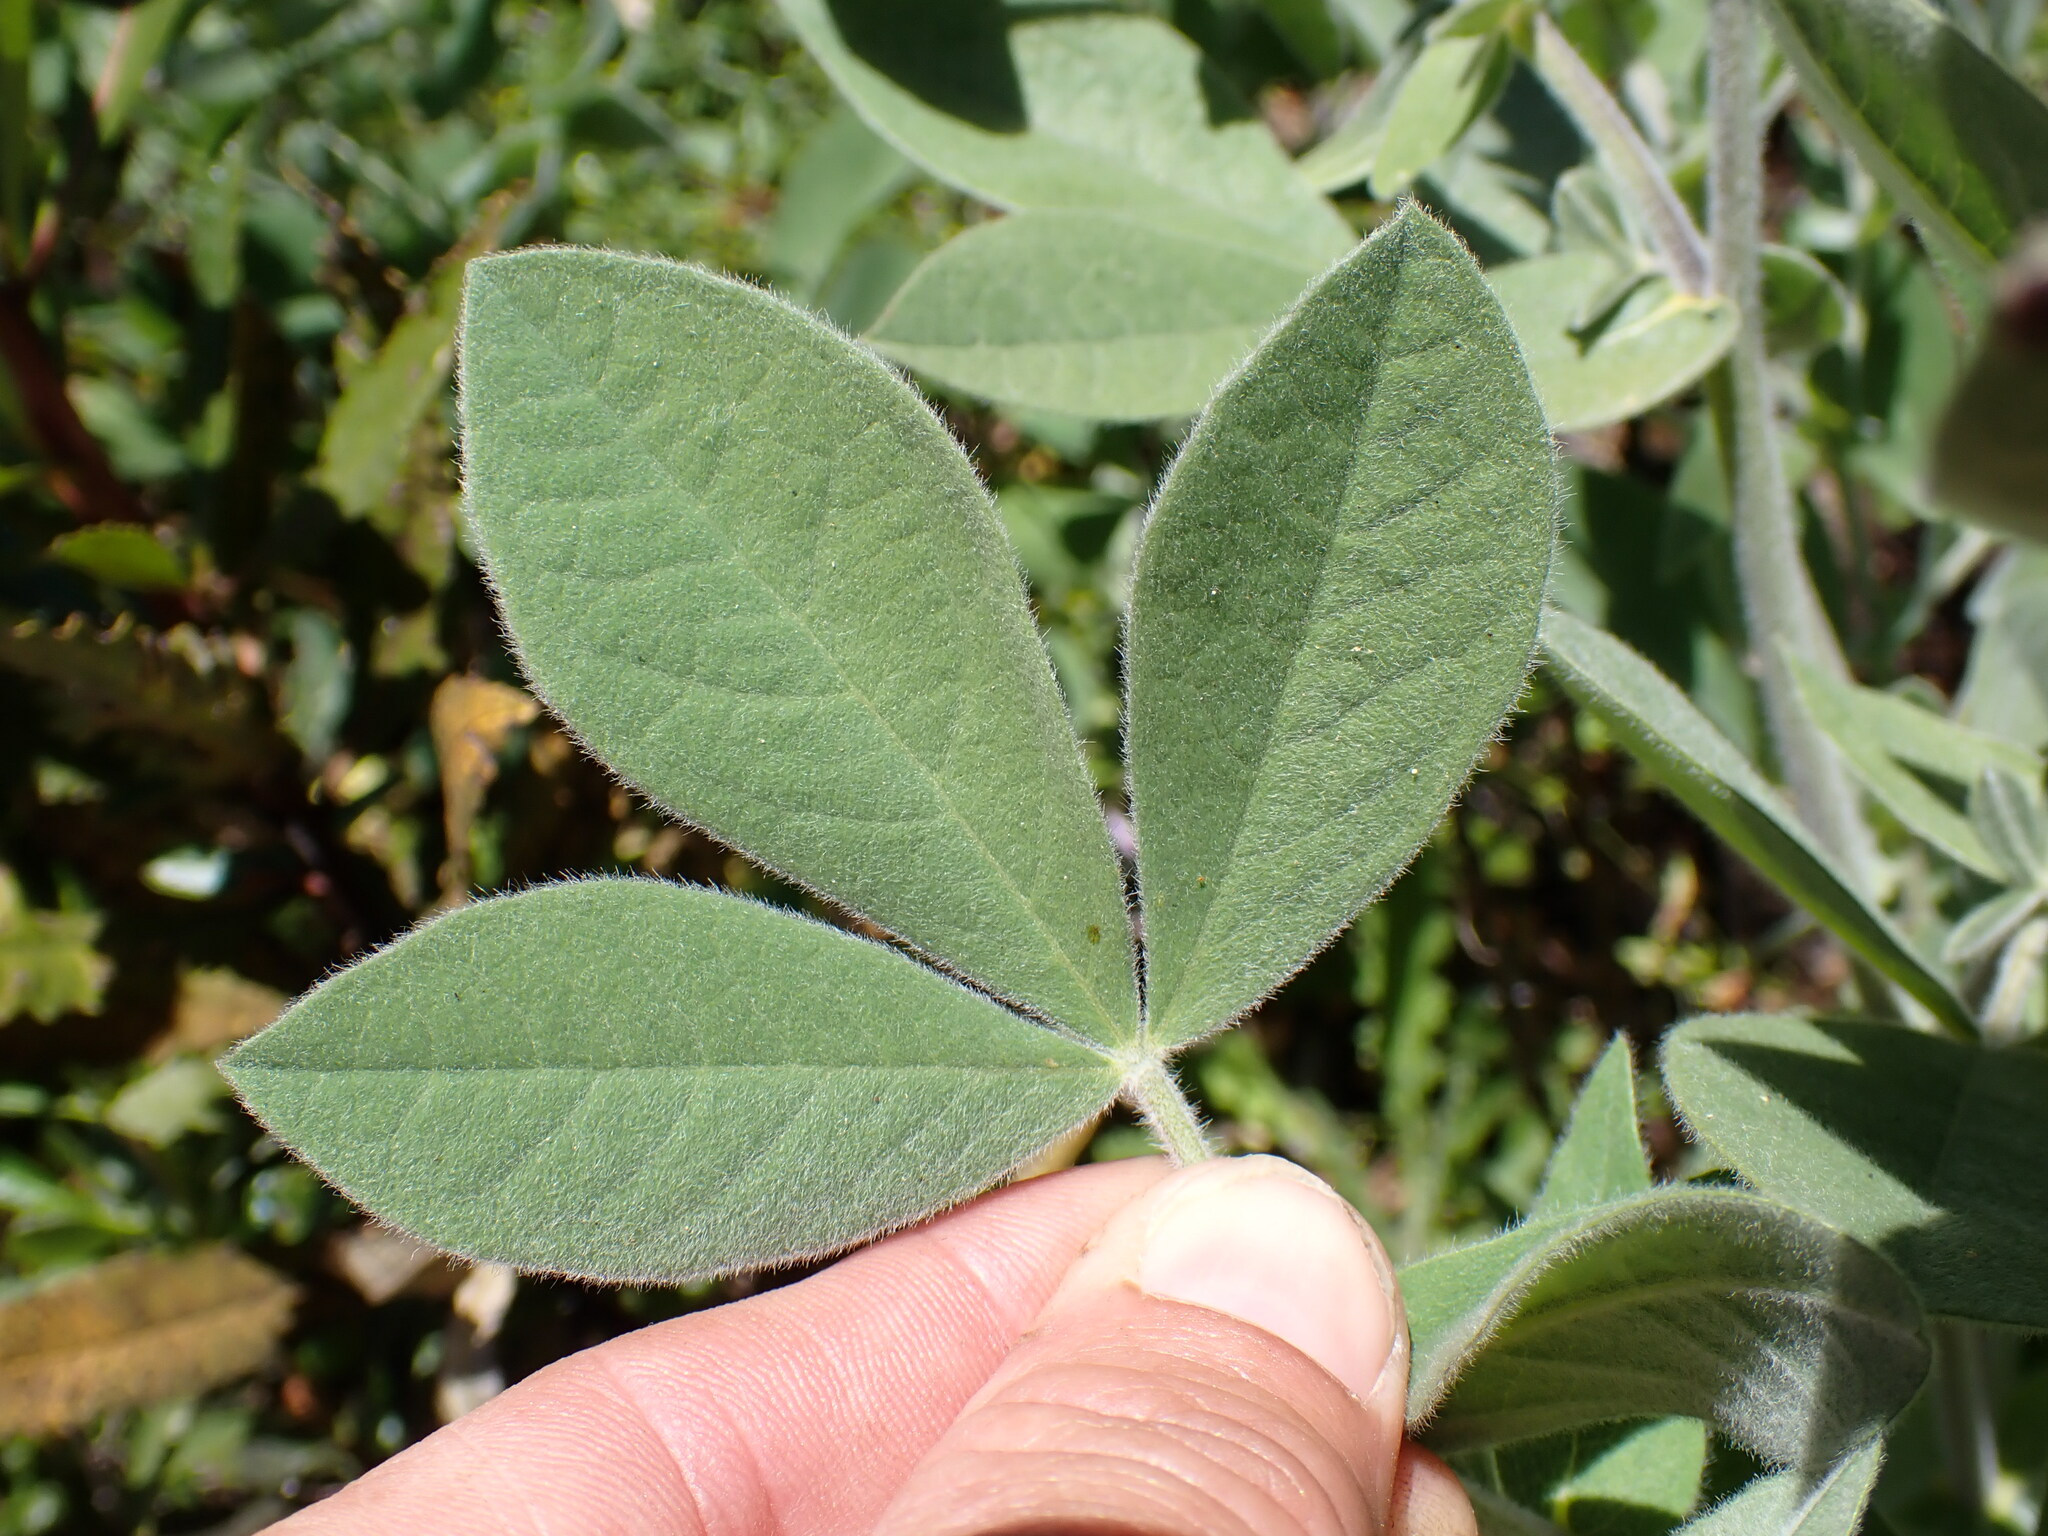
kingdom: Plantae
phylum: Tracheophyta
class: Magnoliopsida
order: Fabales
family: Fabaceae
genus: Thermopsis
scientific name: Thermopsis californica
